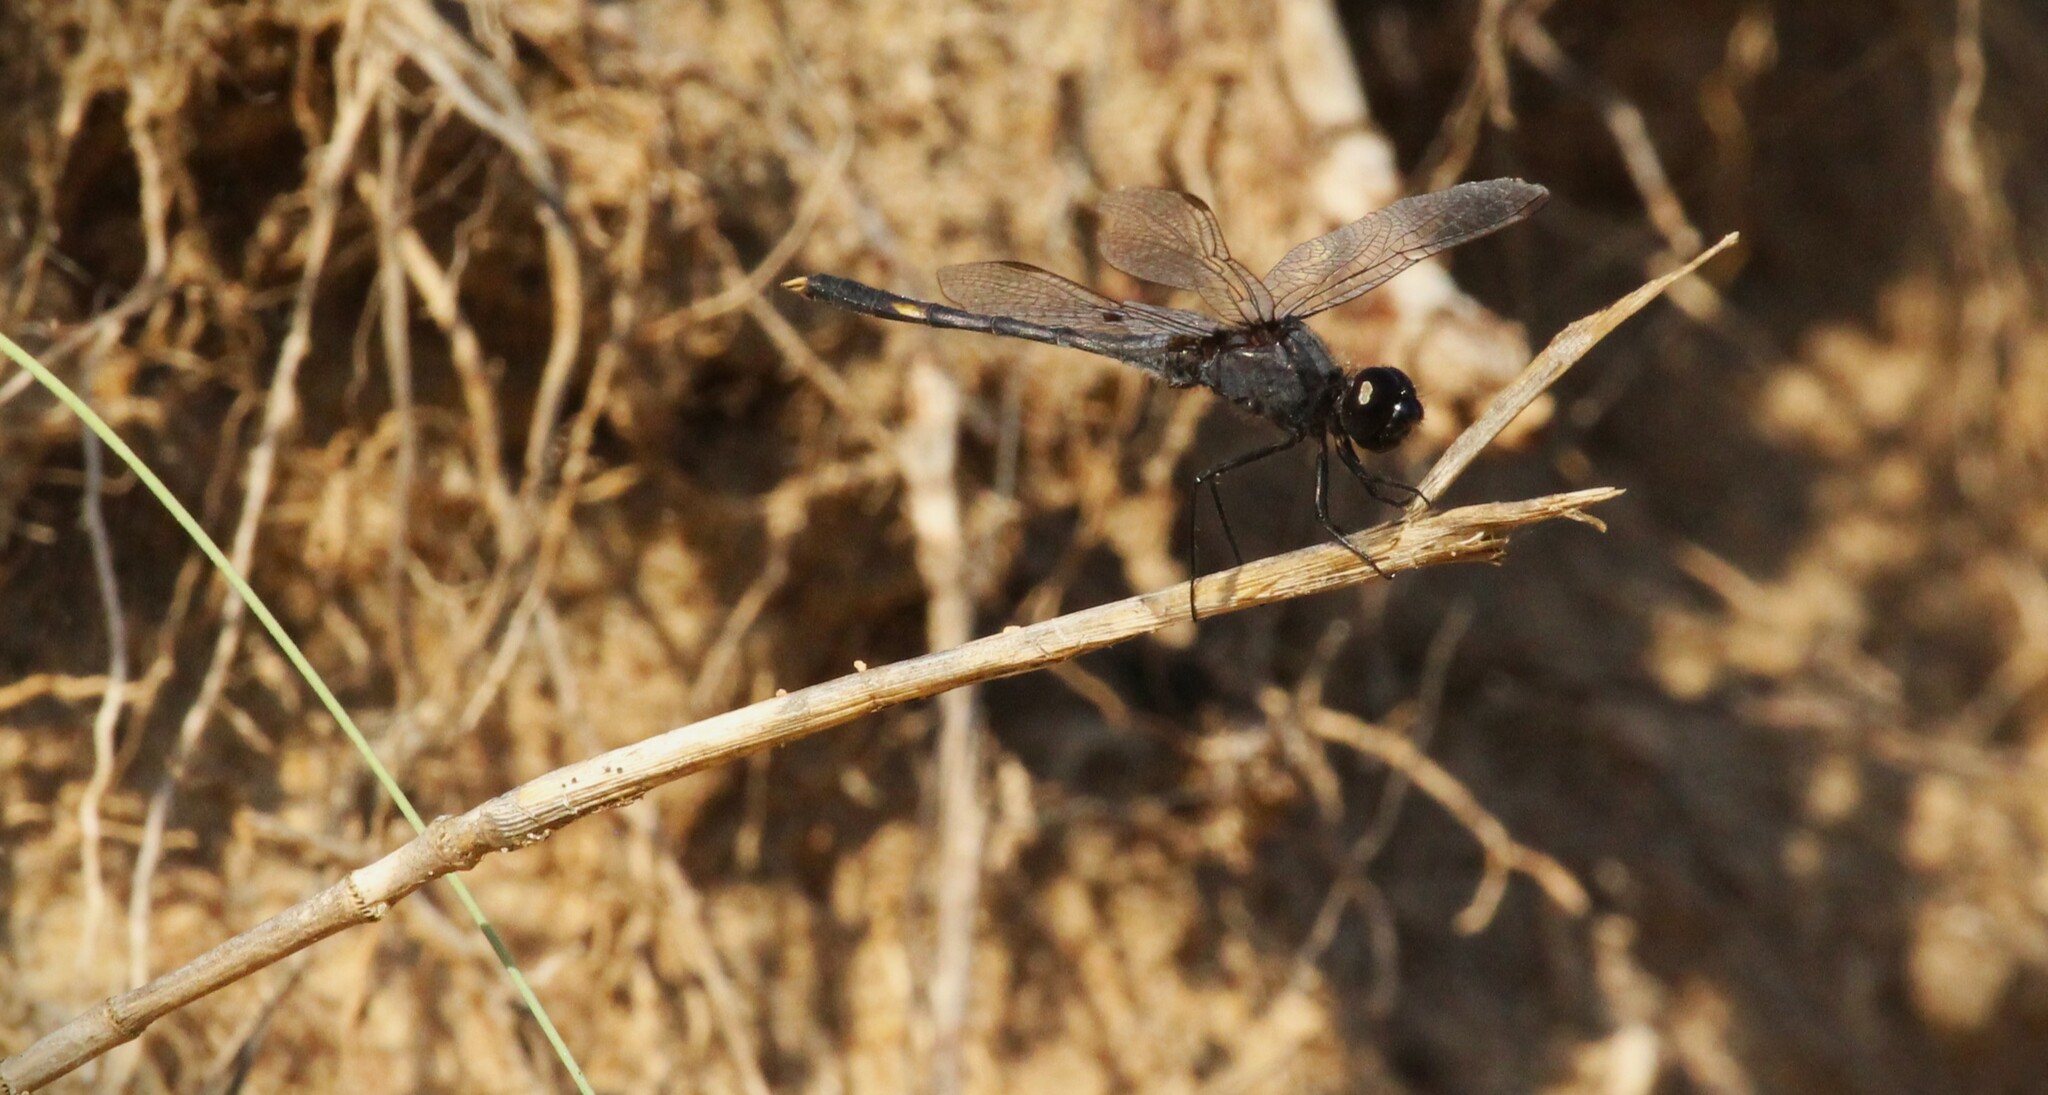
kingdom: Animalia
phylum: Arthropoda
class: Insecta
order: Odonata
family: Libellulidae
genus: Erythrodiplax
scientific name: Erythrodiplax nigricans
